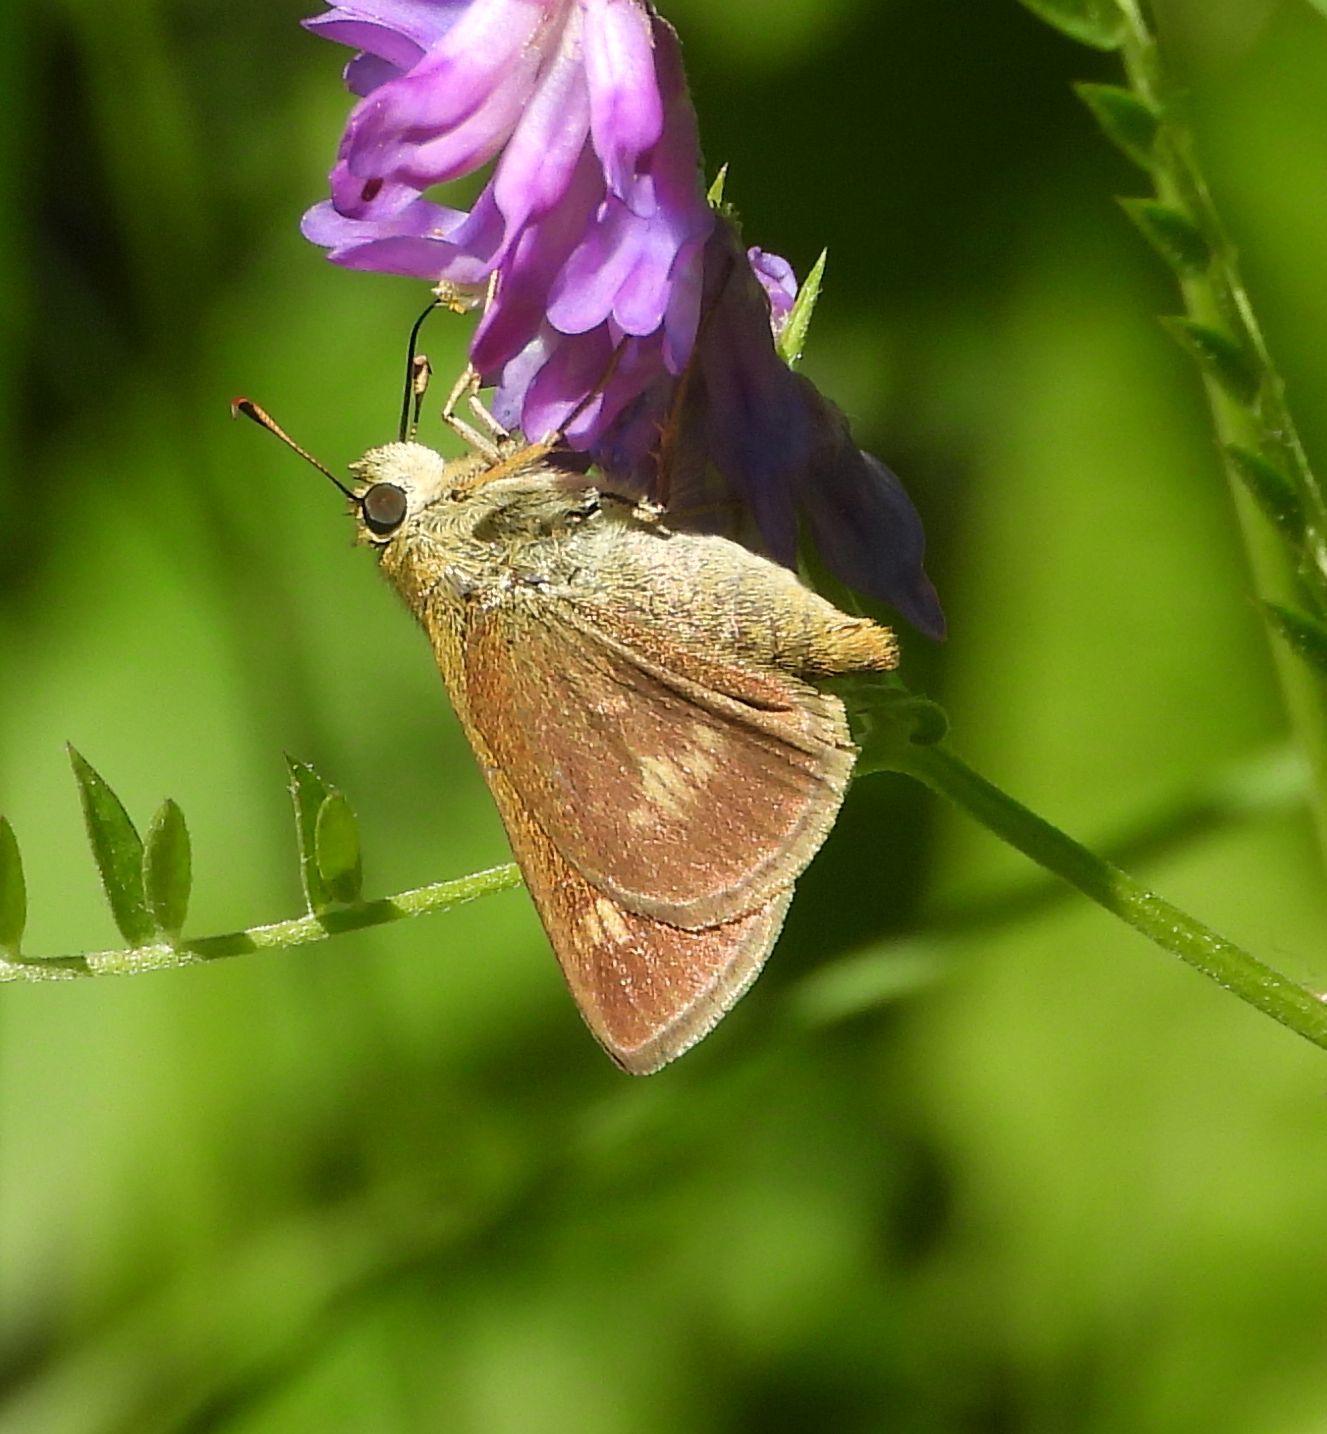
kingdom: Animalia
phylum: Arthropoda
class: Insecta
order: Lepidoptera
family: Hesperiidae
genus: Polites
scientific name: Polites egeremet
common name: Northern broken-dash
